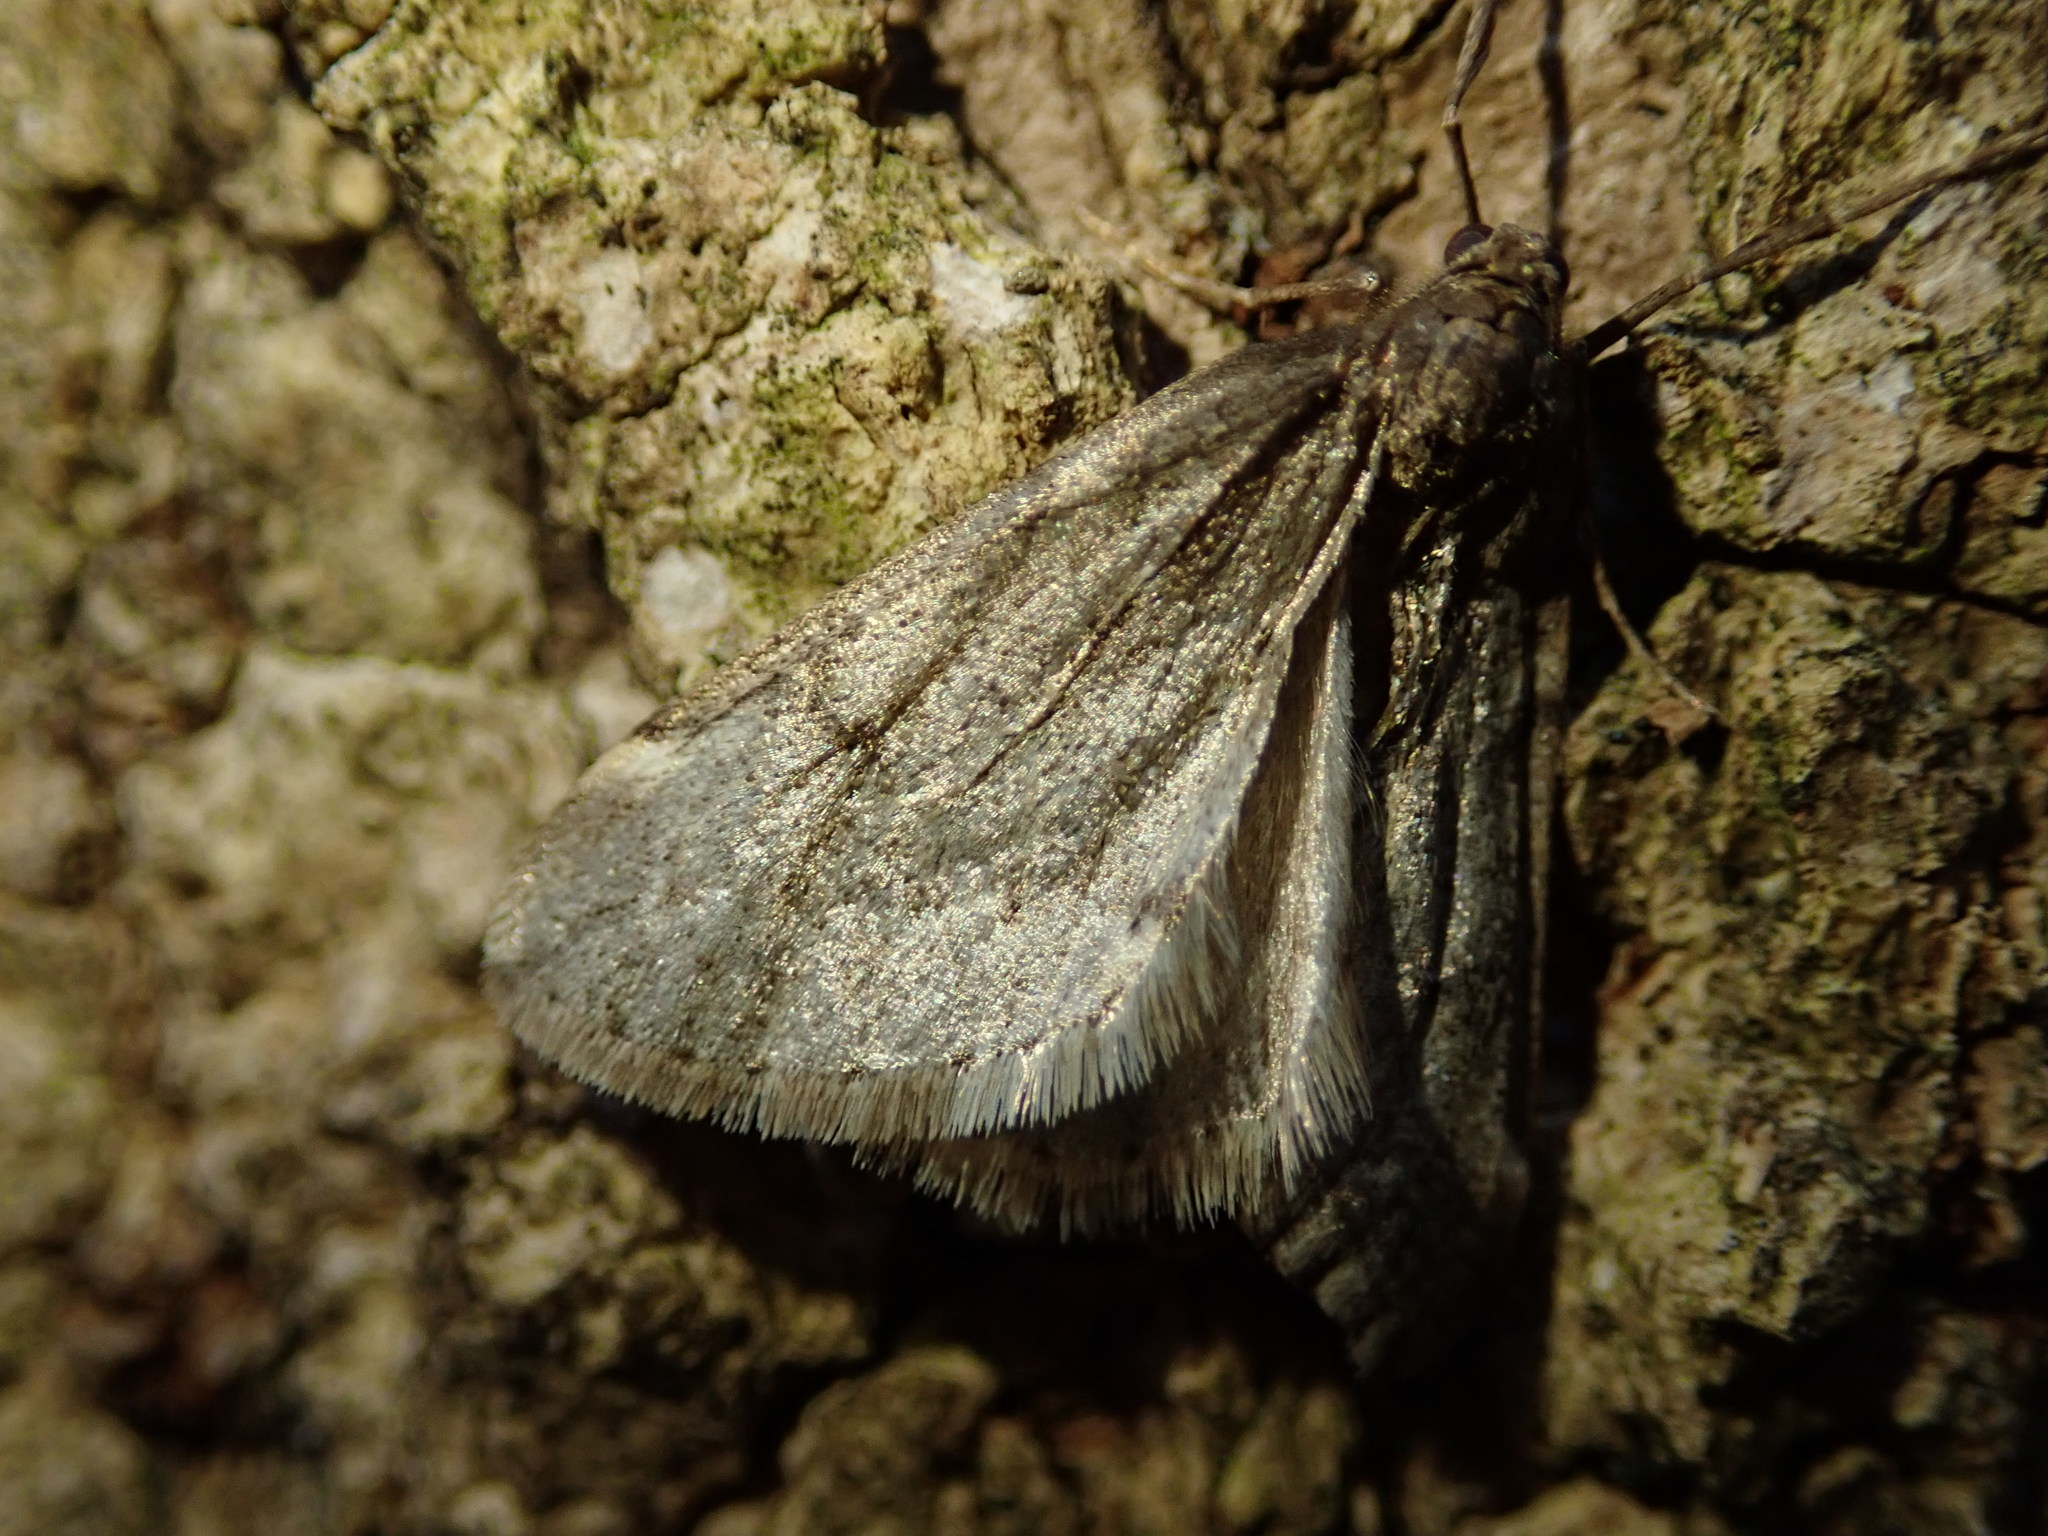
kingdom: Animalia
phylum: Arthropoda
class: Insecta
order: Lepidoptera
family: Geometridae
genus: Alsophila
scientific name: Alsophila pometaria
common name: Fall cankerworm
